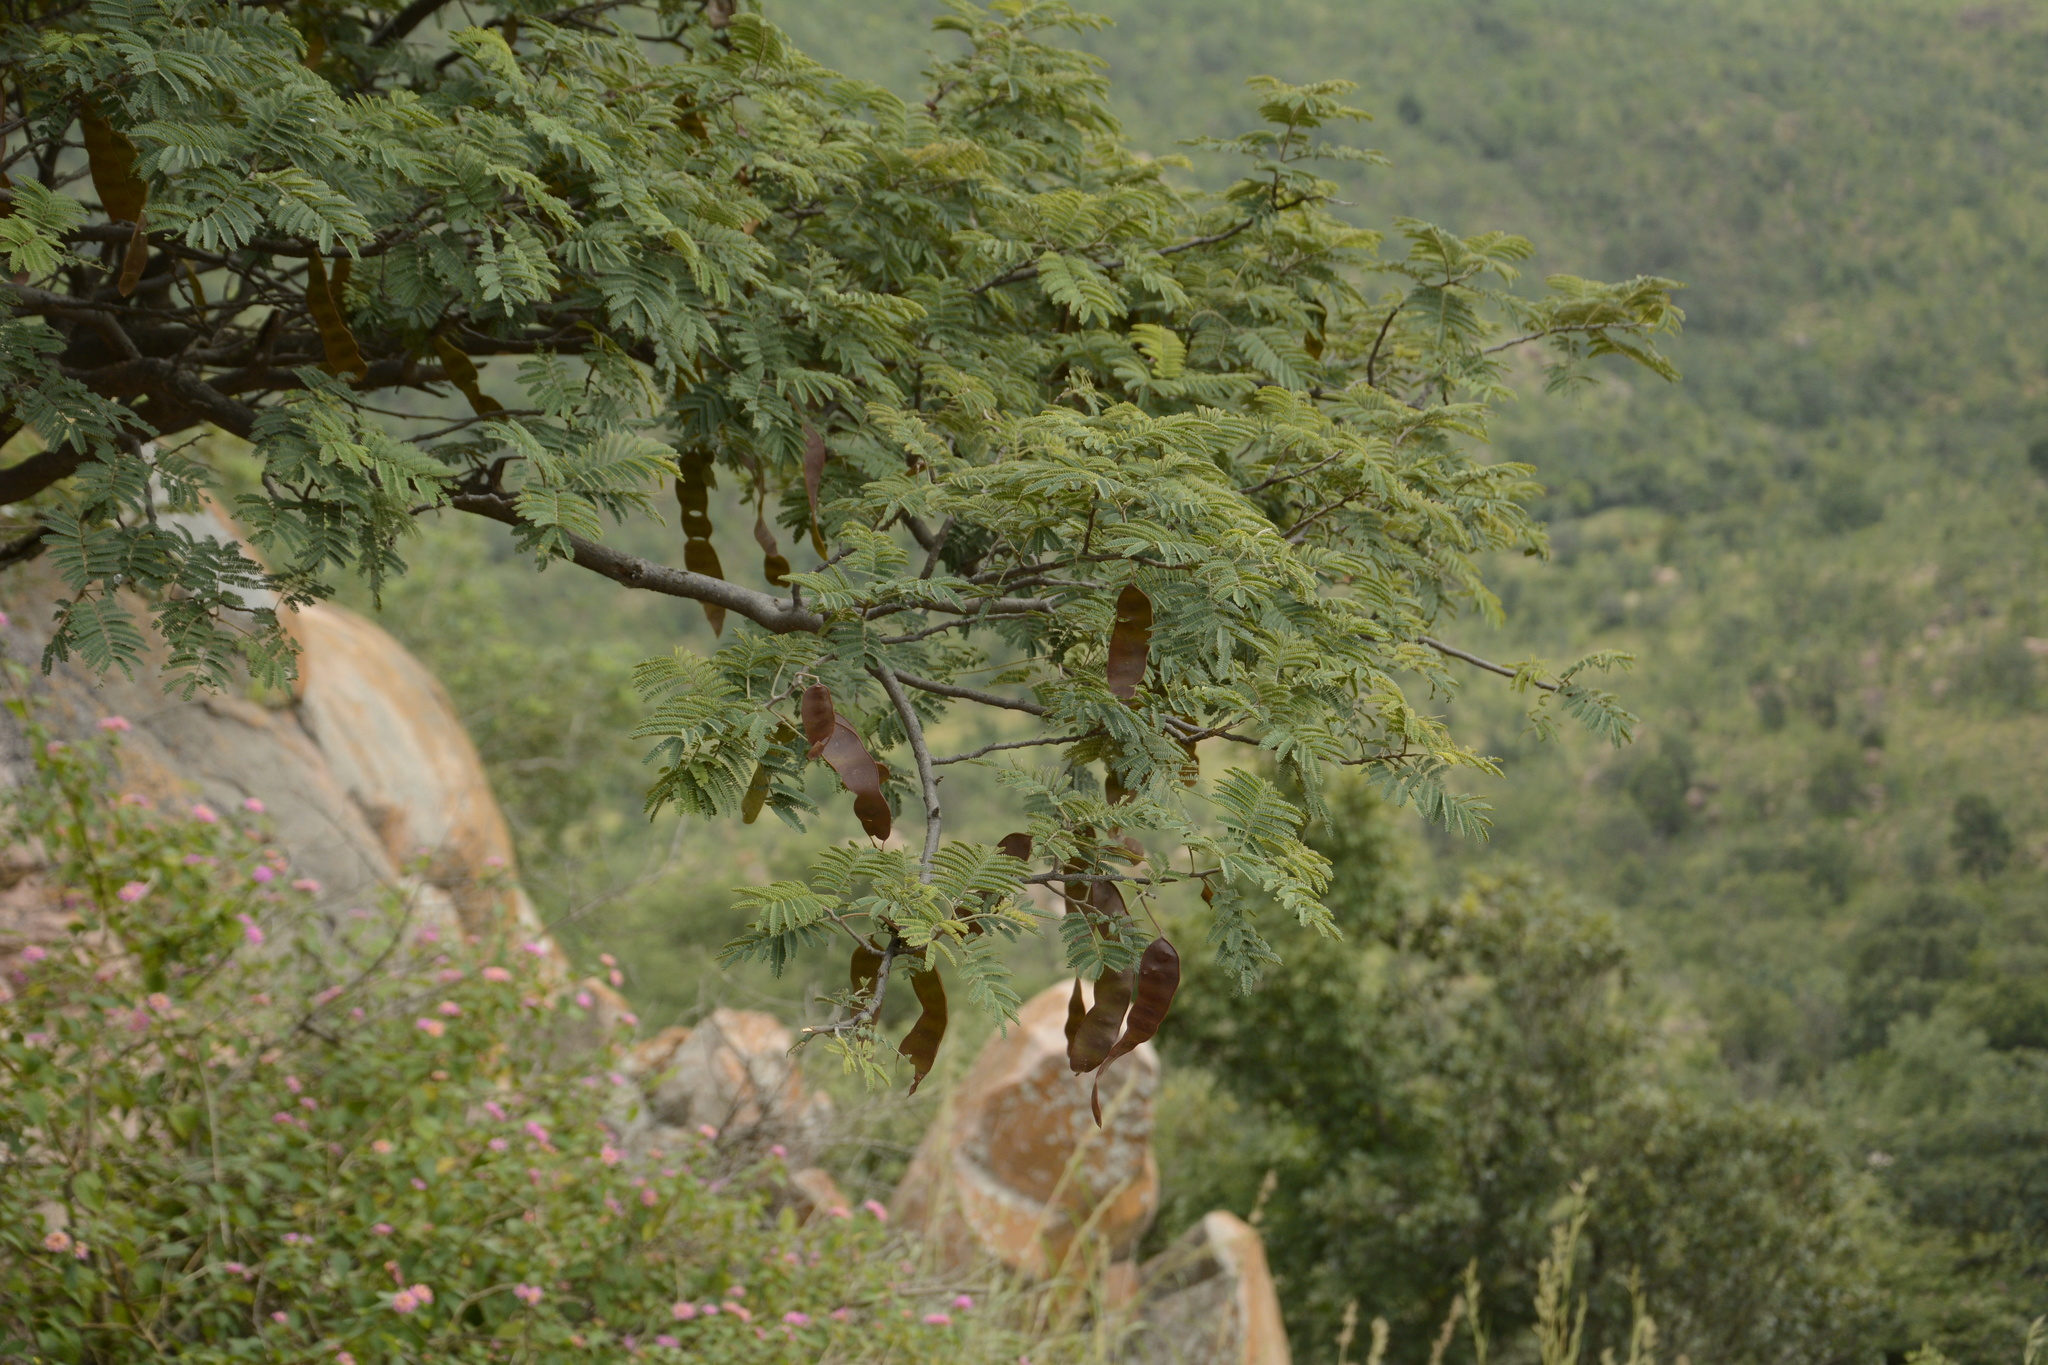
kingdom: Plantae
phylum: Tracheophyta
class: Magnoliopsida
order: Fabales
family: Fabaceae
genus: Albizia
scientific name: Albizia amara
